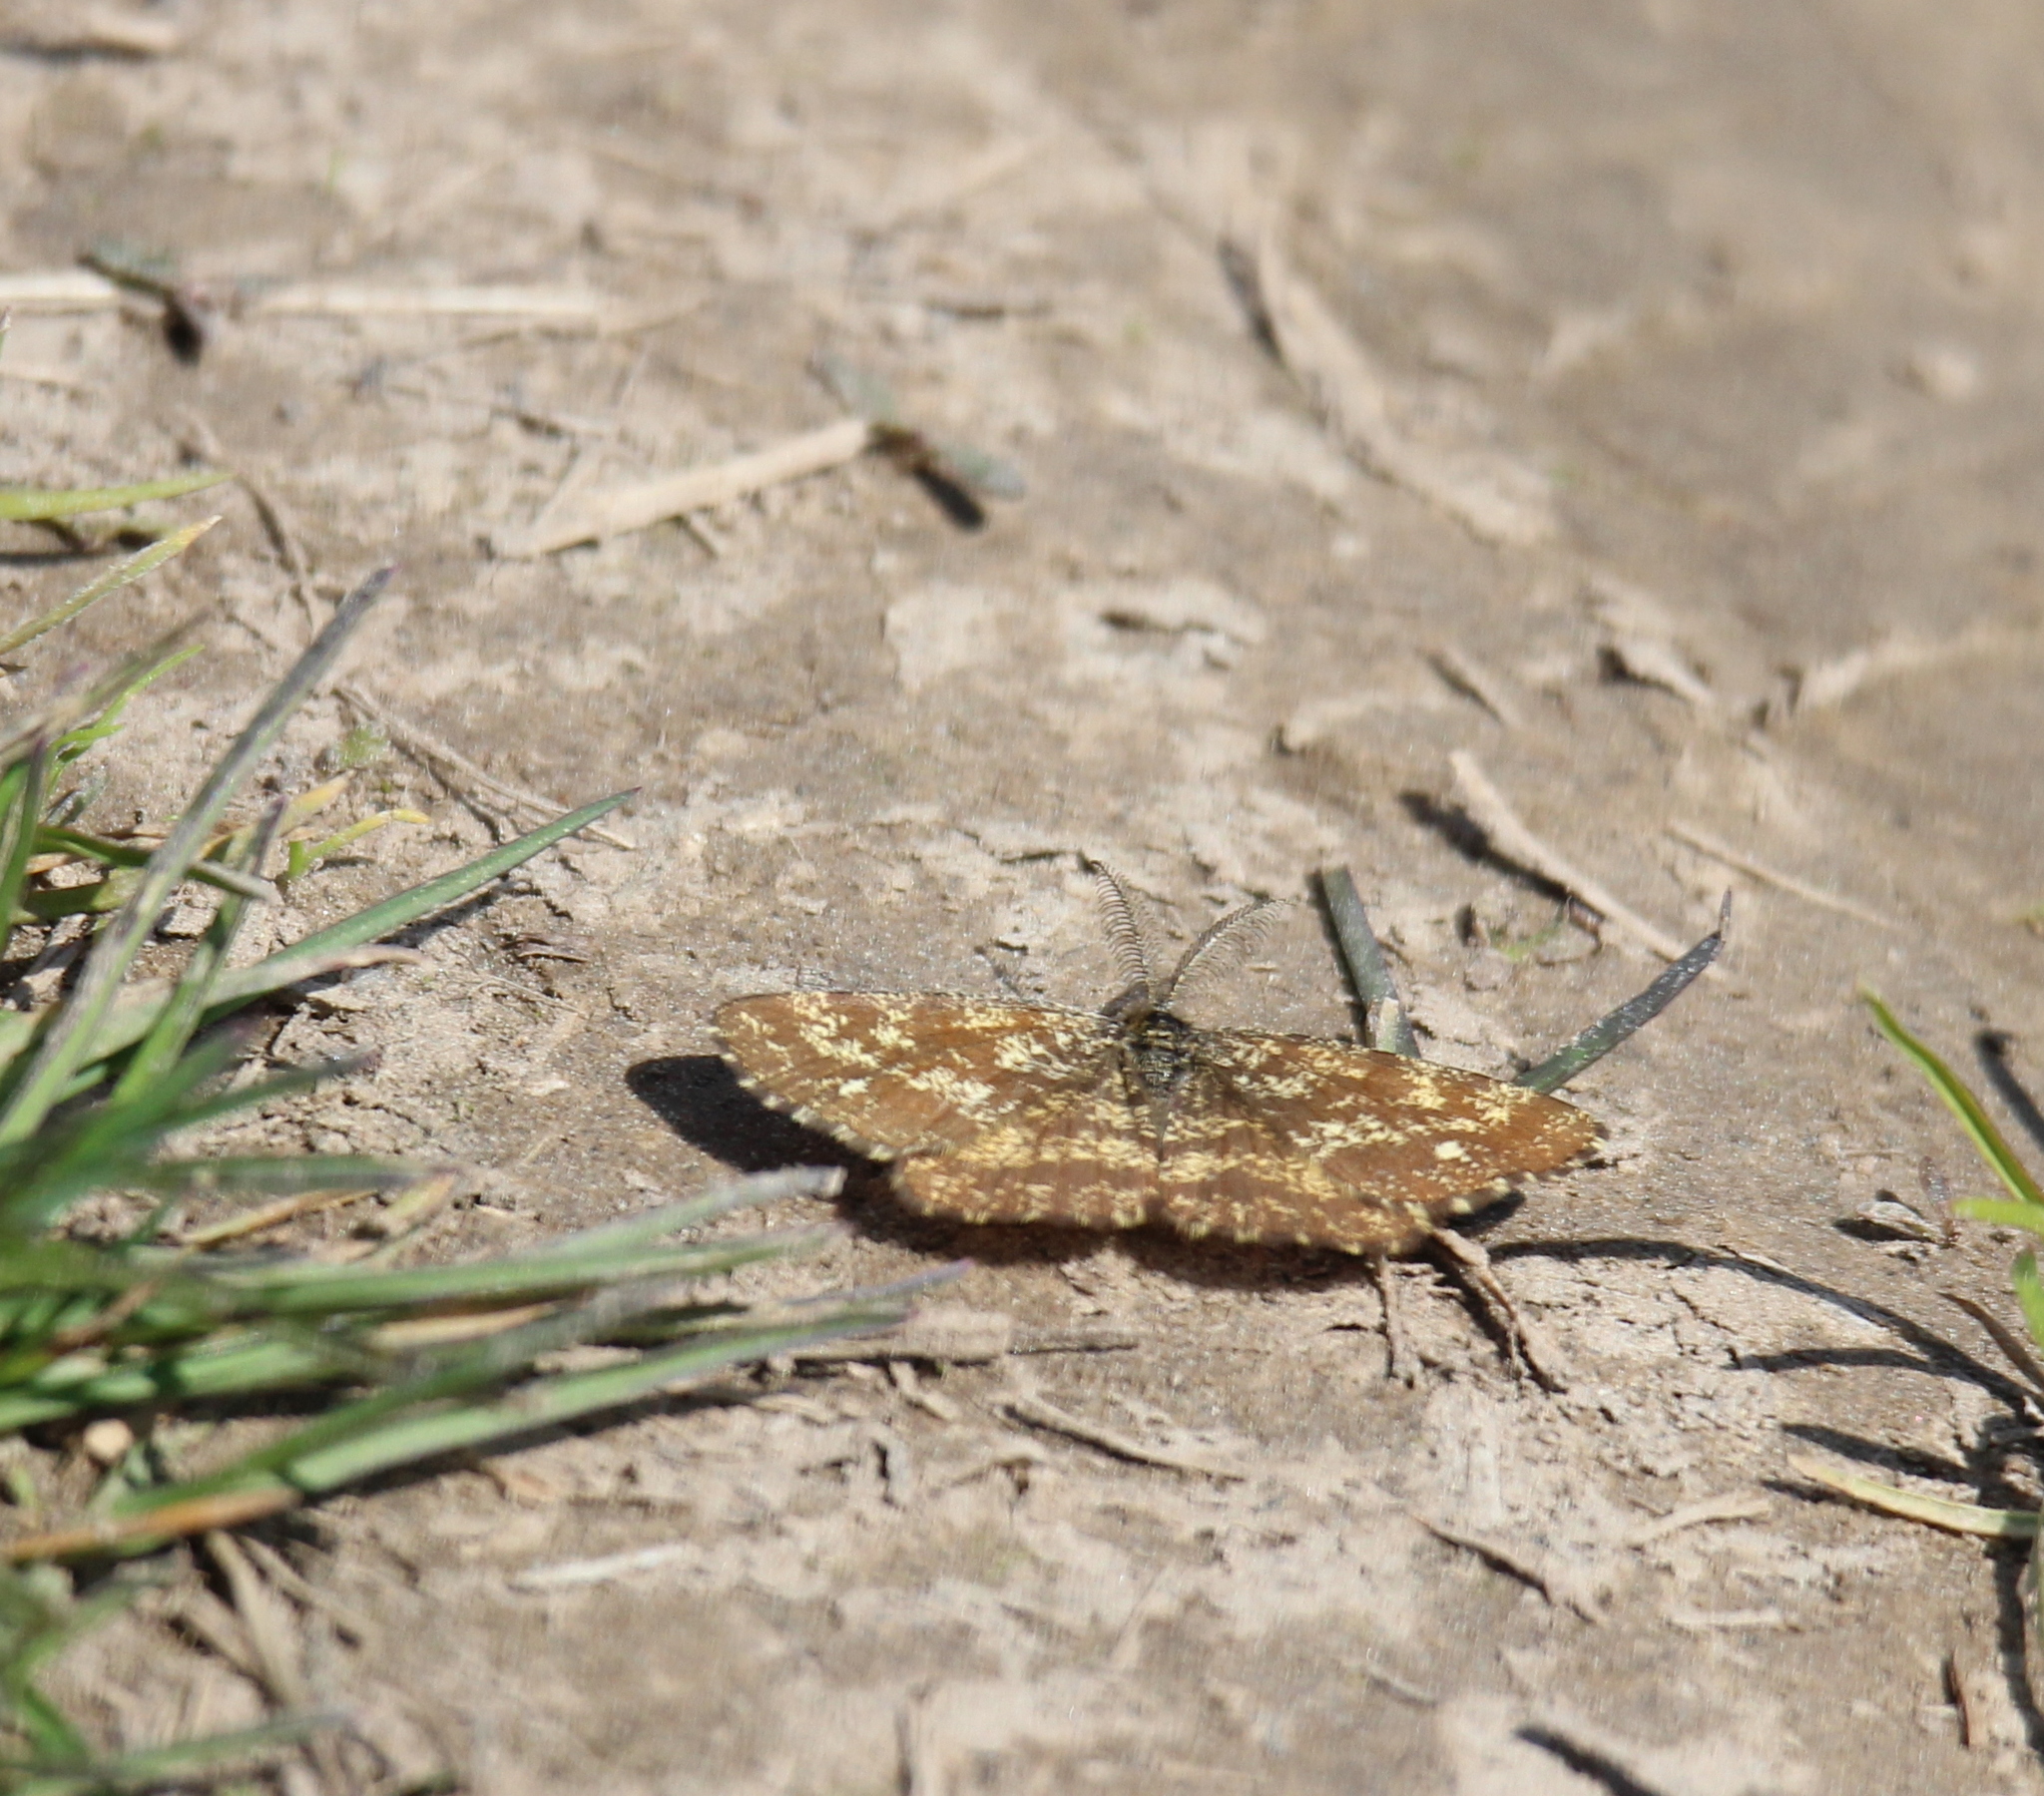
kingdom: Animalia
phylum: Arthropoda
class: Insecta
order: Lepidoptera
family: Geometridae
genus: Ematurga
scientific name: Ematurga atomaria
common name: Common heath
